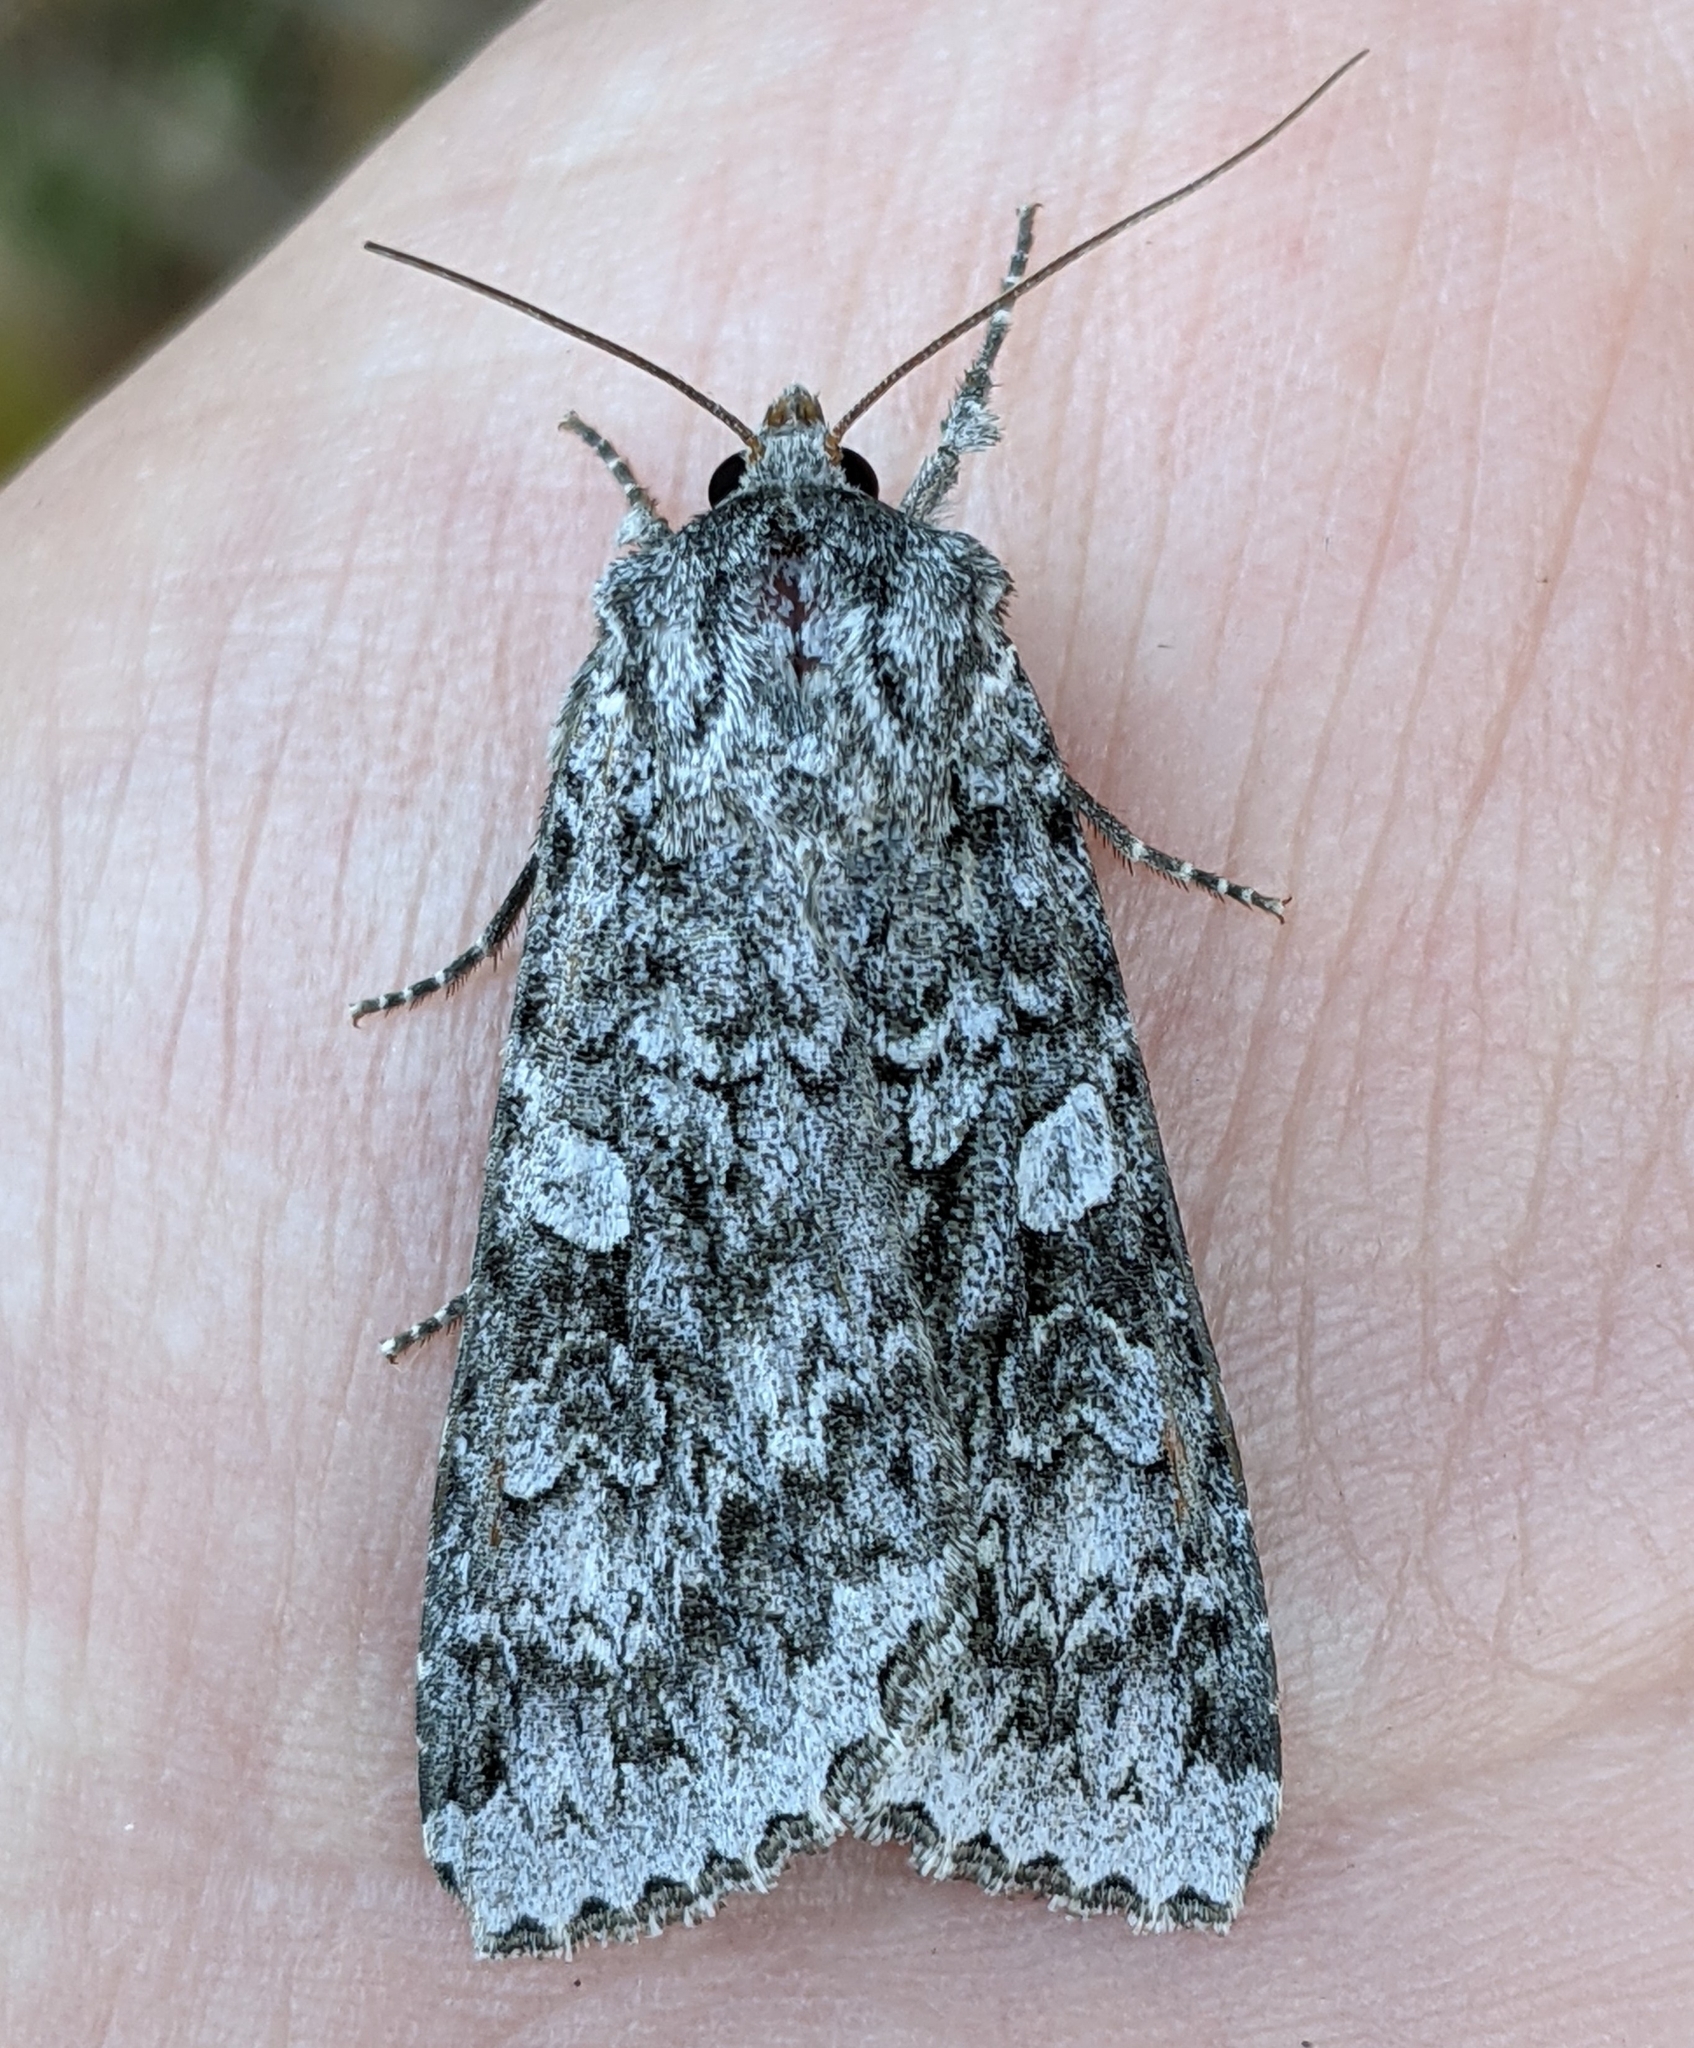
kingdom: Animalia
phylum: Arthropoda
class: Insecta
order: Lepidoptera
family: Noctuidae
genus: Eurois
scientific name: Eurois occulta
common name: Great brocade
